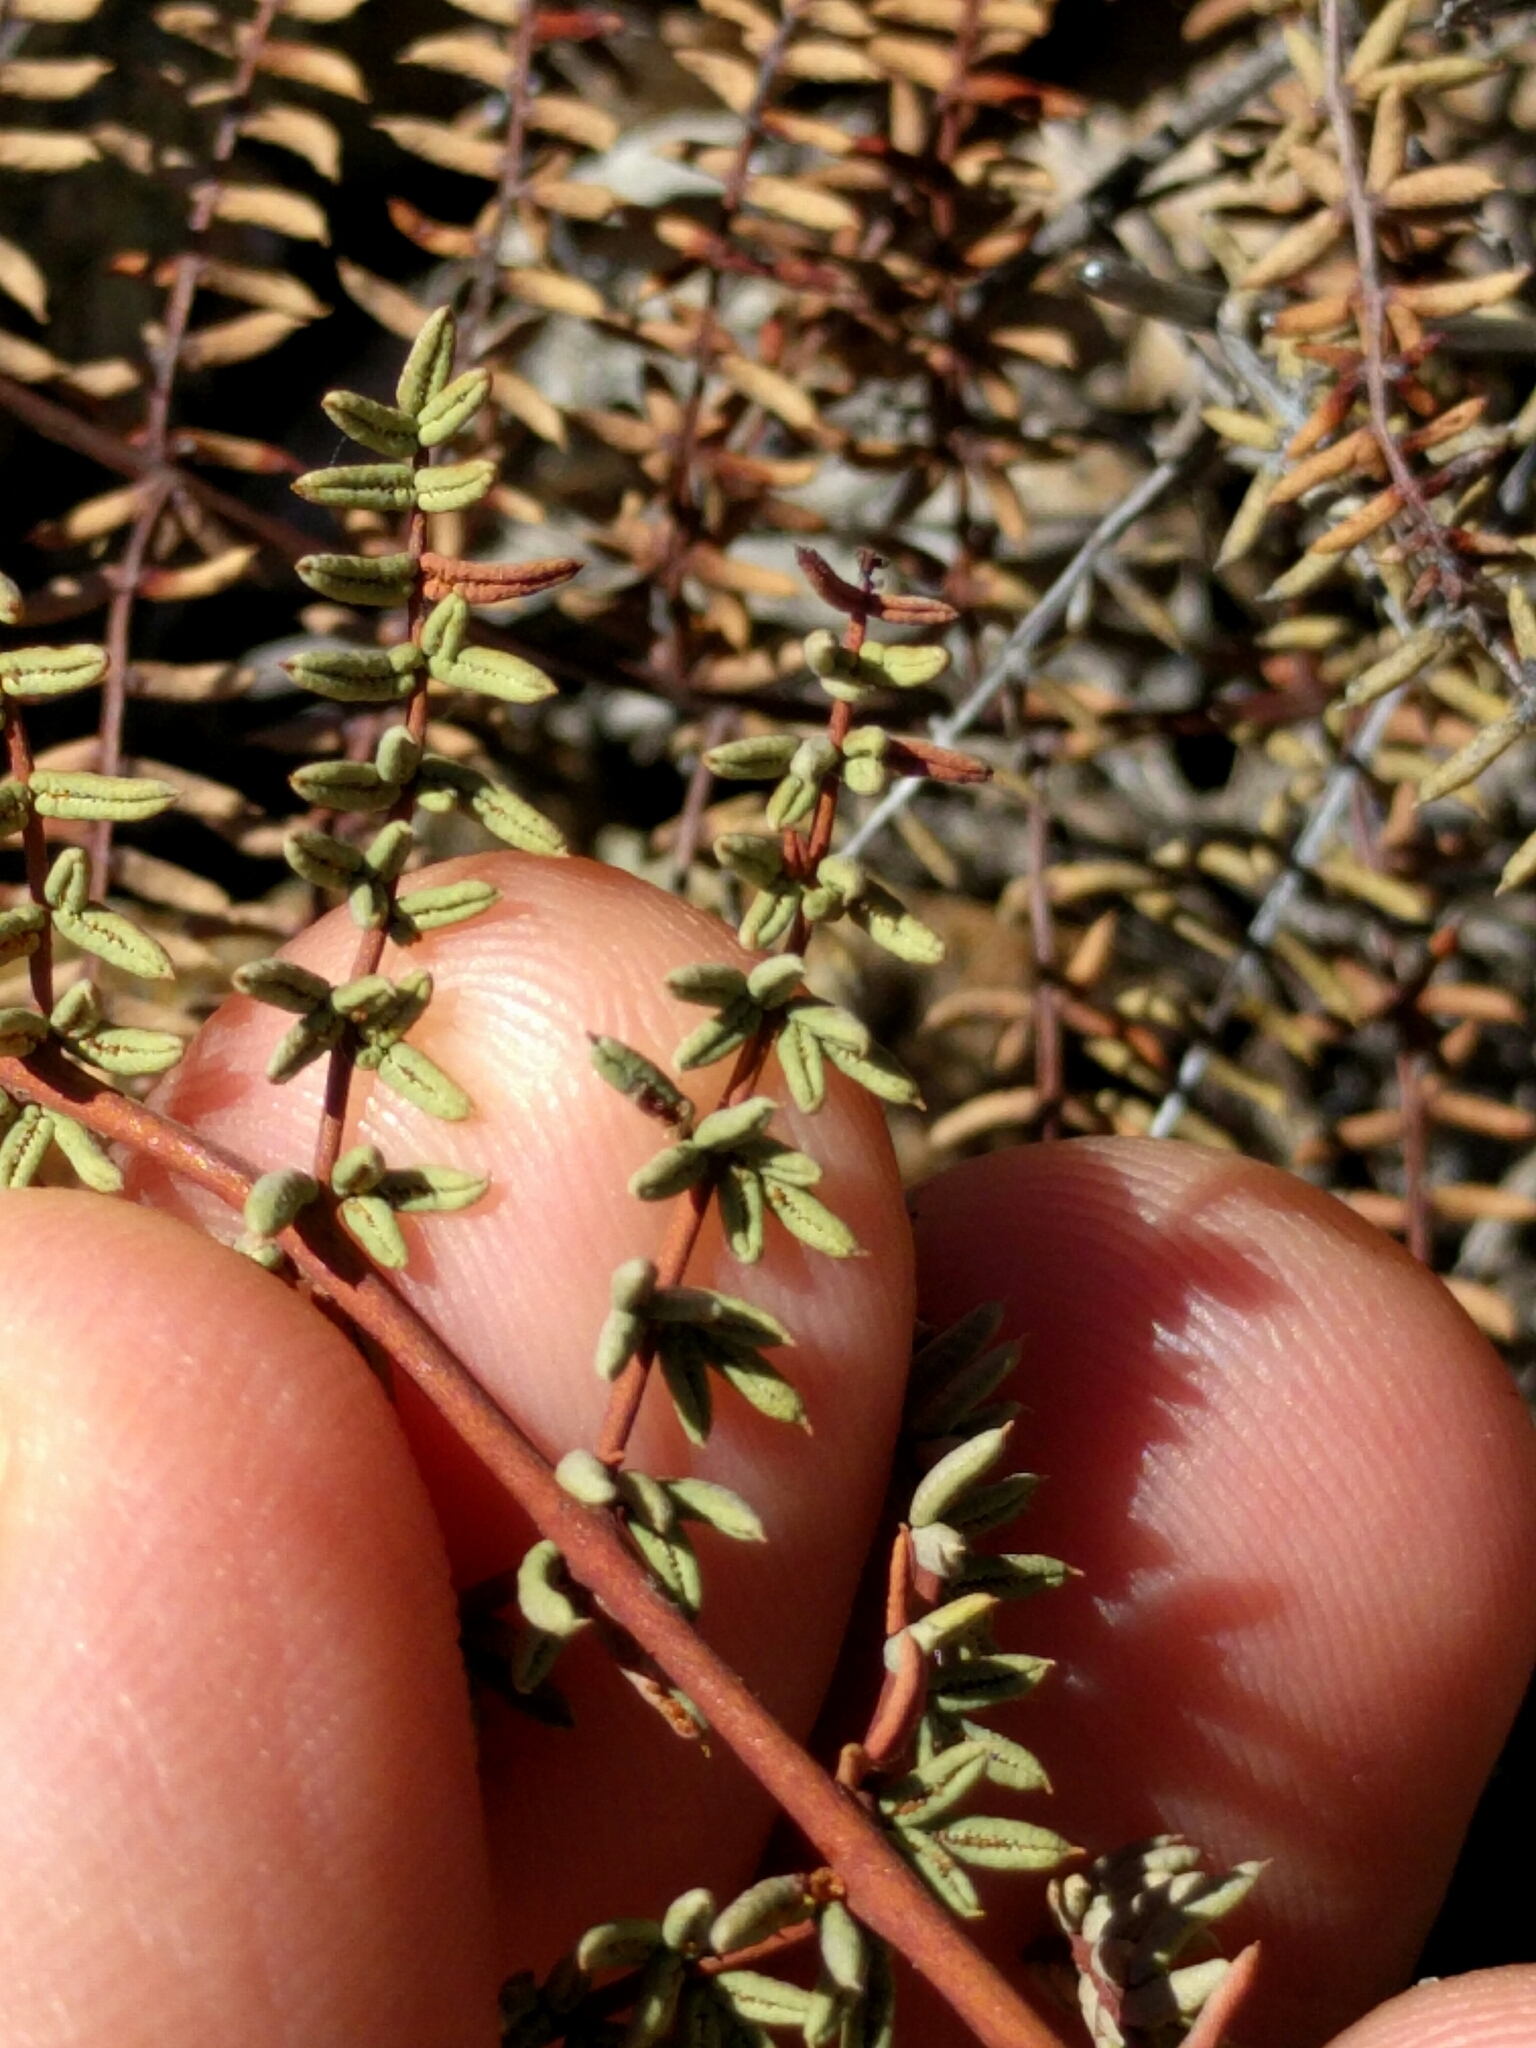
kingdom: Plantae
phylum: Tracheophyta
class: Polypodiopsida
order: Polypodiales
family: Pteridaceae
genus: Pellaea
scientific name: Pellaea mucronata
